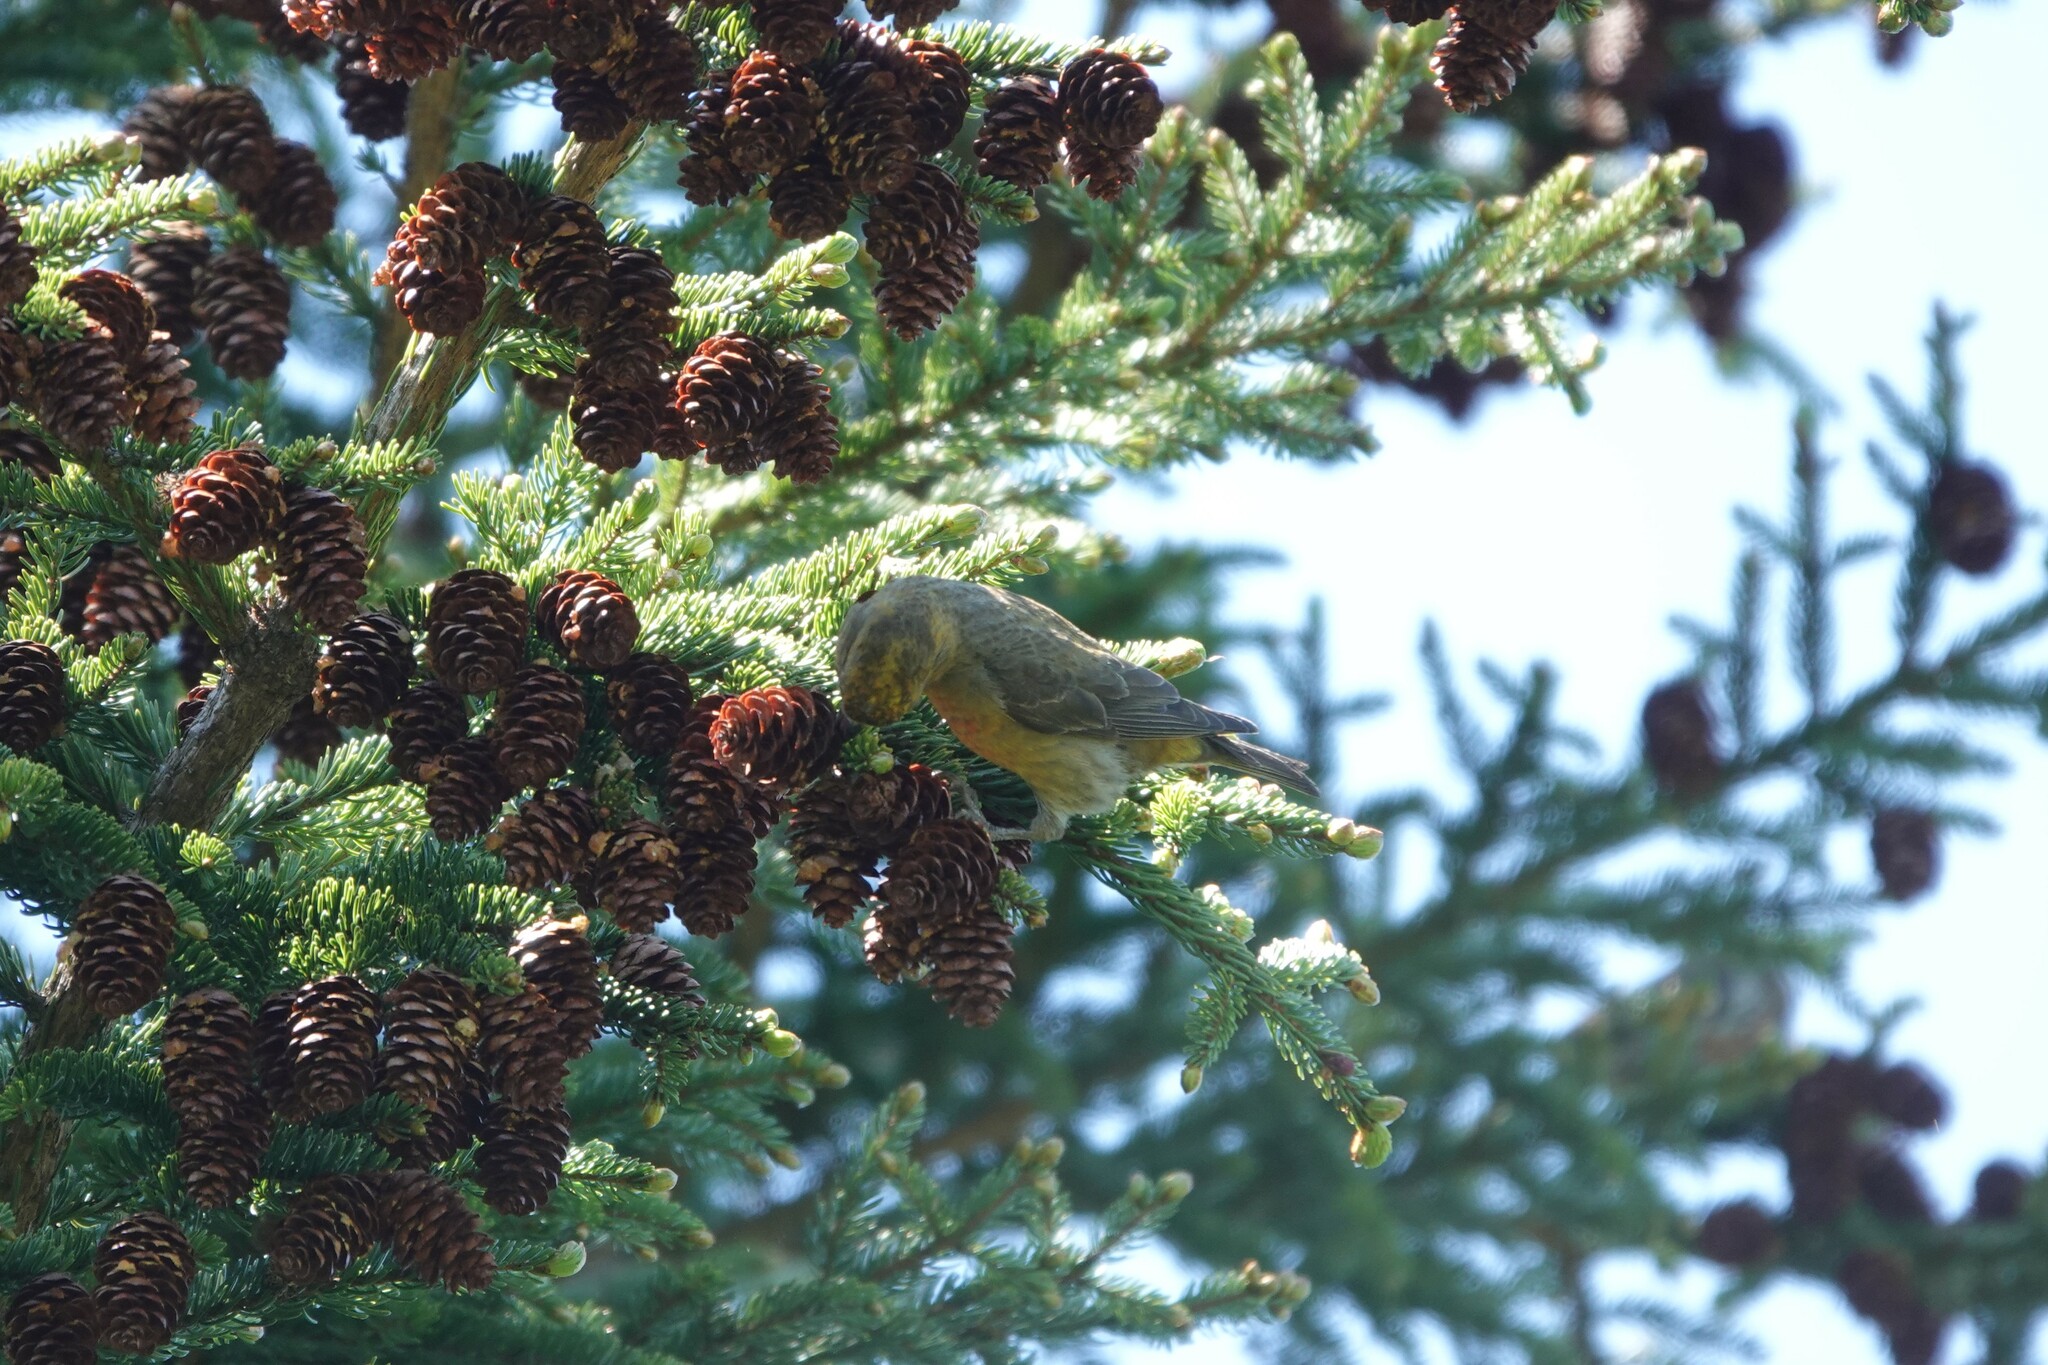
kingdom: Animalia
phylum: Chordata
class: Aves
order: Passeriformes
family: Fringillidae
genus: Loxia
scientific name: Loxia curvirostra
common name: Red crossbill
